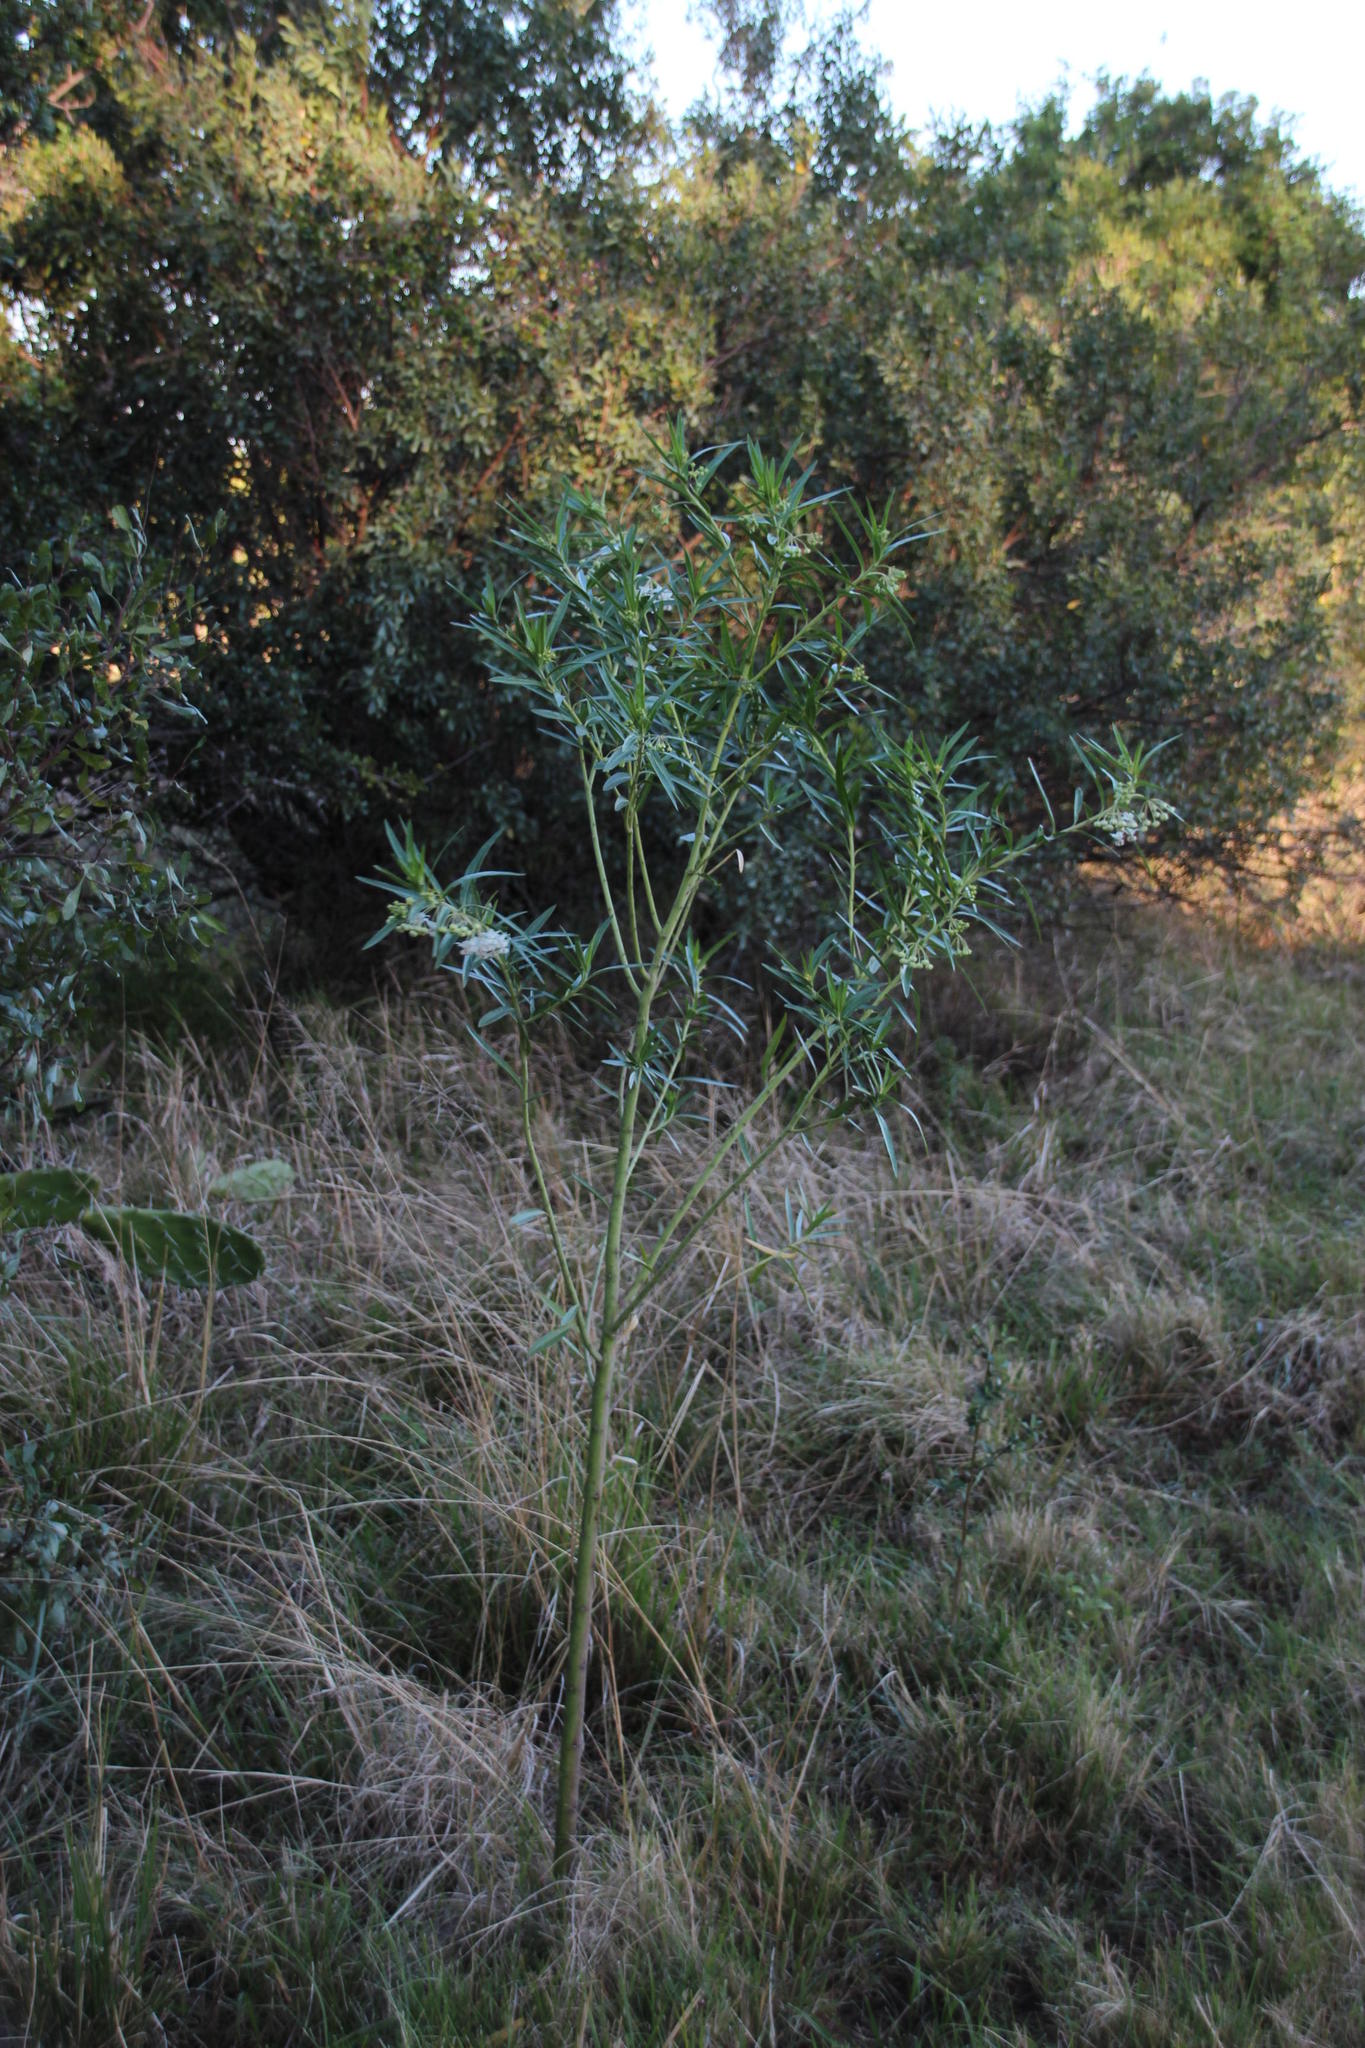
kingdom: Plantae
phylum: Tracheophyta
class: Magnoliopsida
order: Gentianales
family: Apocynaceae
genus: Gomphocarpus
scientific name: Gomphocarpus physocarpus
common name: Balloon cotton bush
